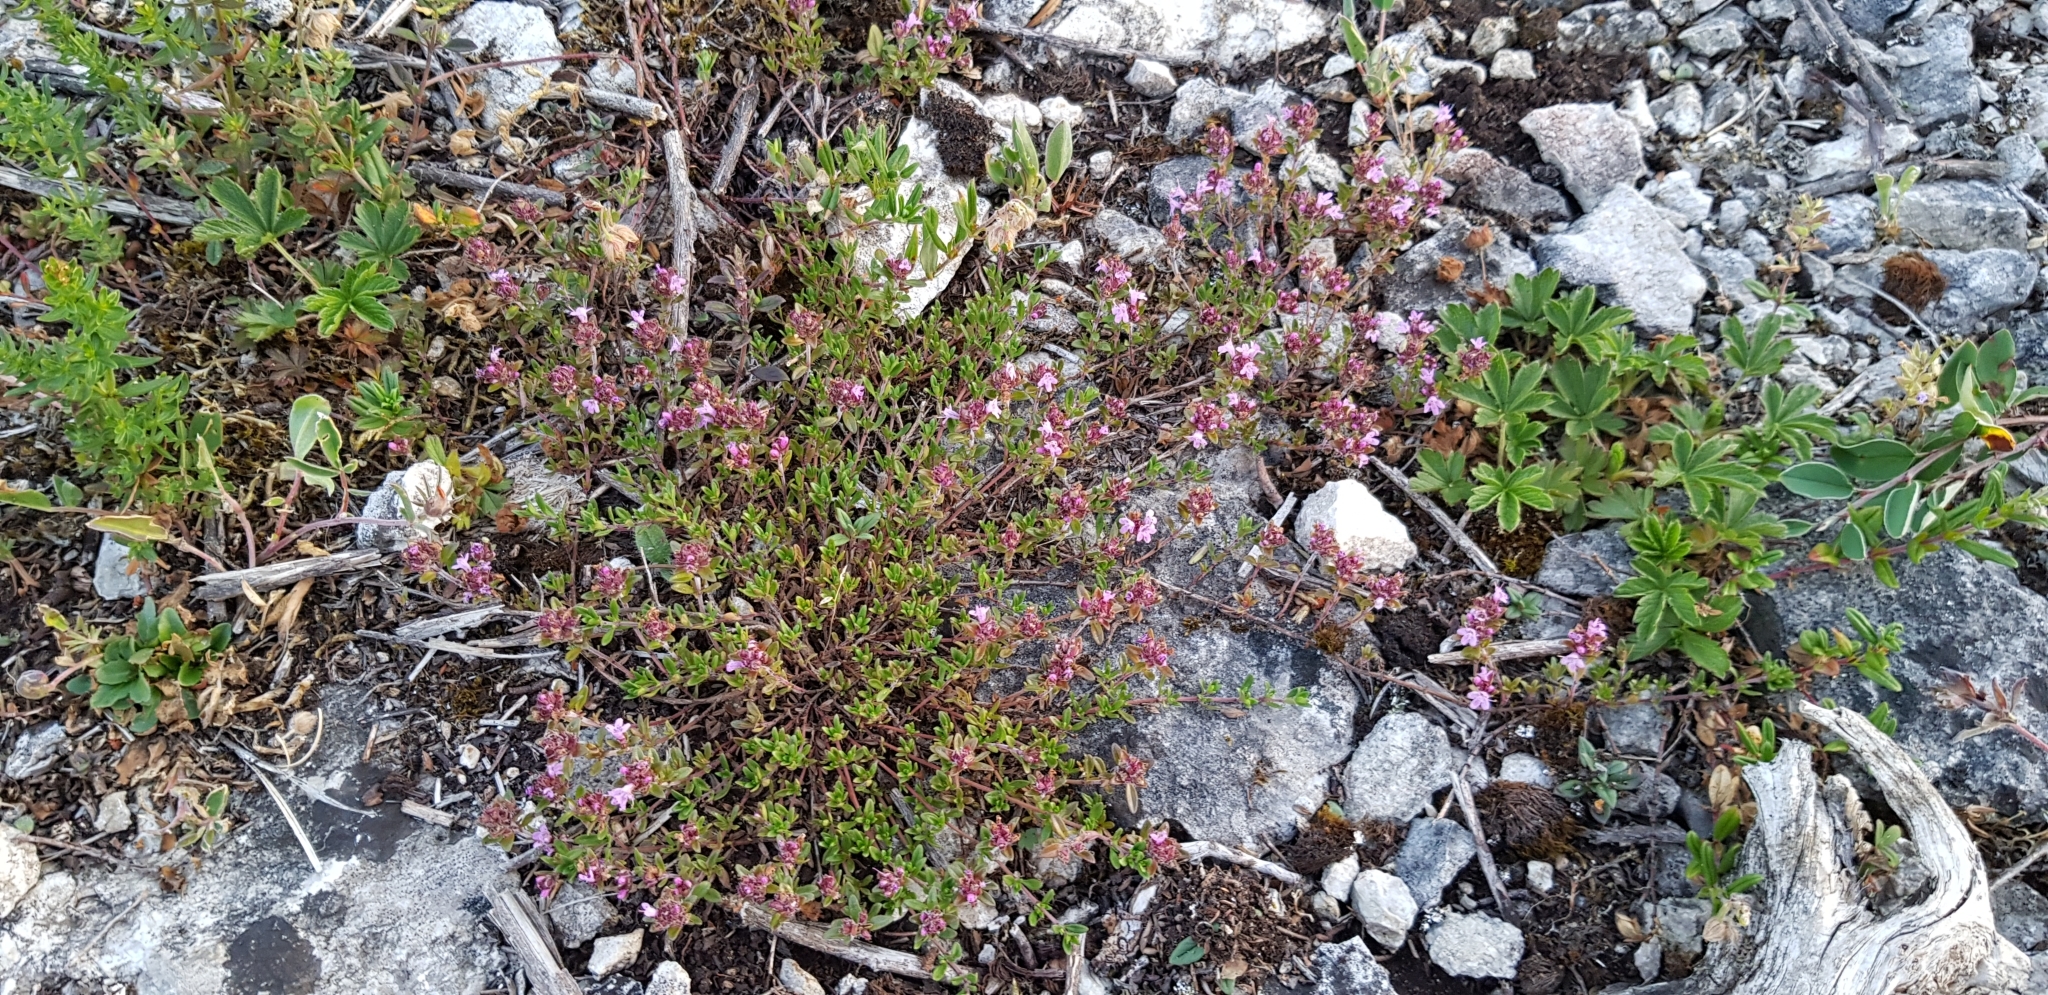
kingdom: Plantae
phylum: Tracheophyta
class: Magnoliopsida
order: Lamiales
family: Lamiaceae
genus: Thymus
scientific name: Thymus serpyllum
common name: Breckland thyme
